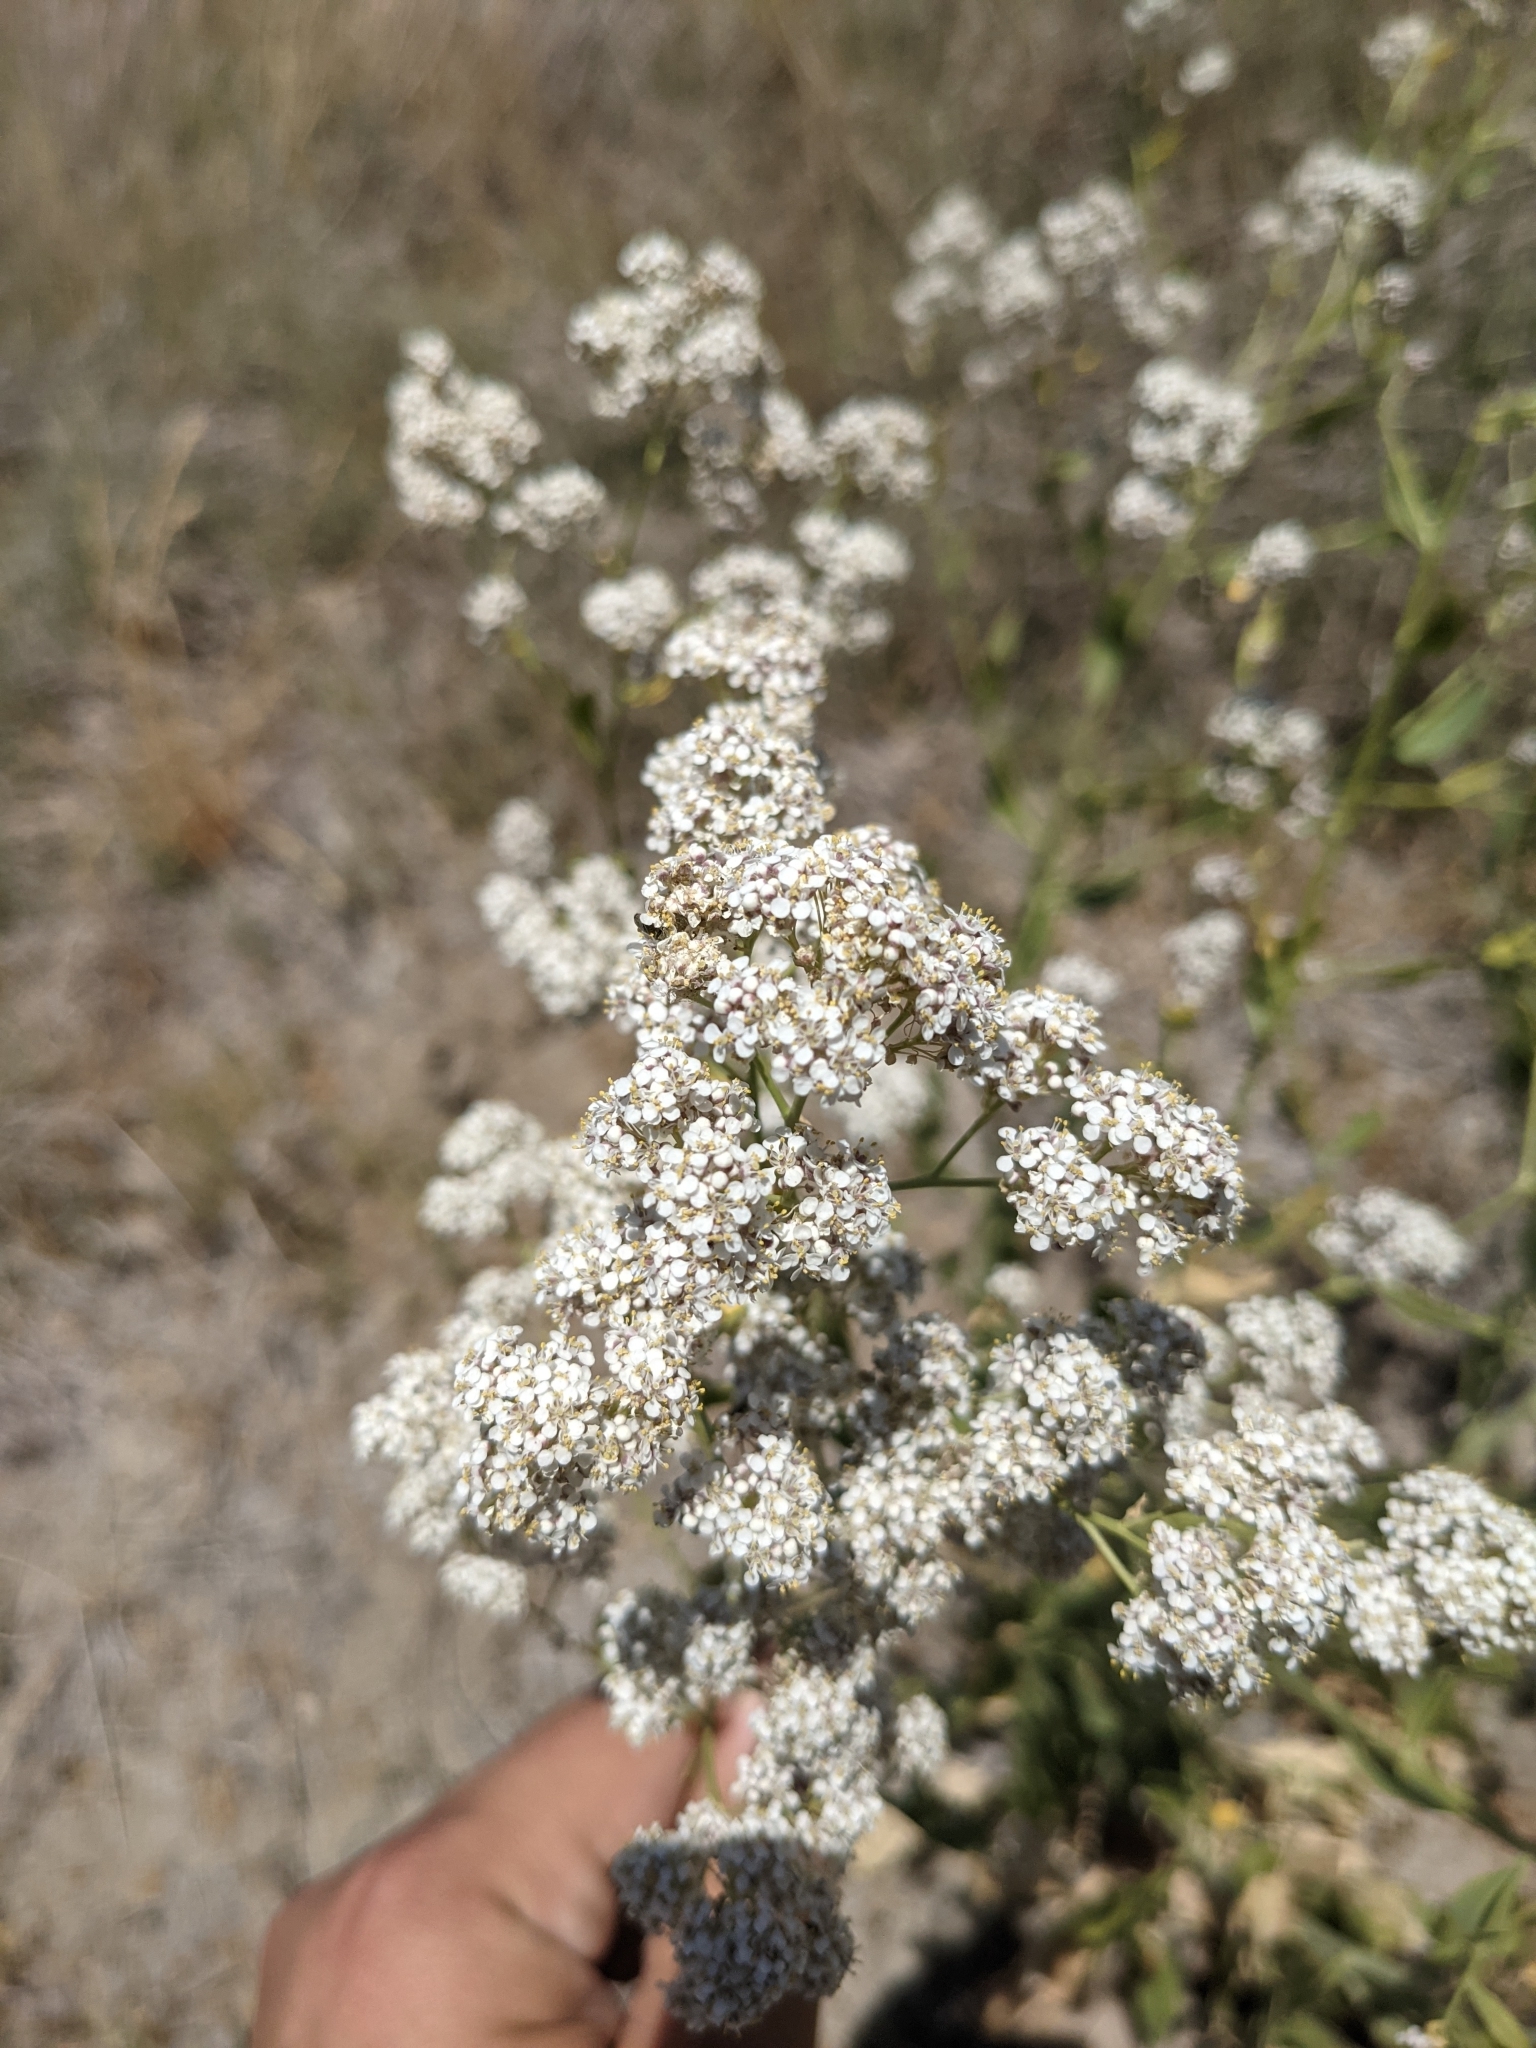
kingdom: Plantae
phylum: Tracheophyta
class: Magnoliopsida
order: Brassicales
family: Brassicaceae
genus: Lepidium
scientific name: Lepidium latifolium
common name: Dittander
